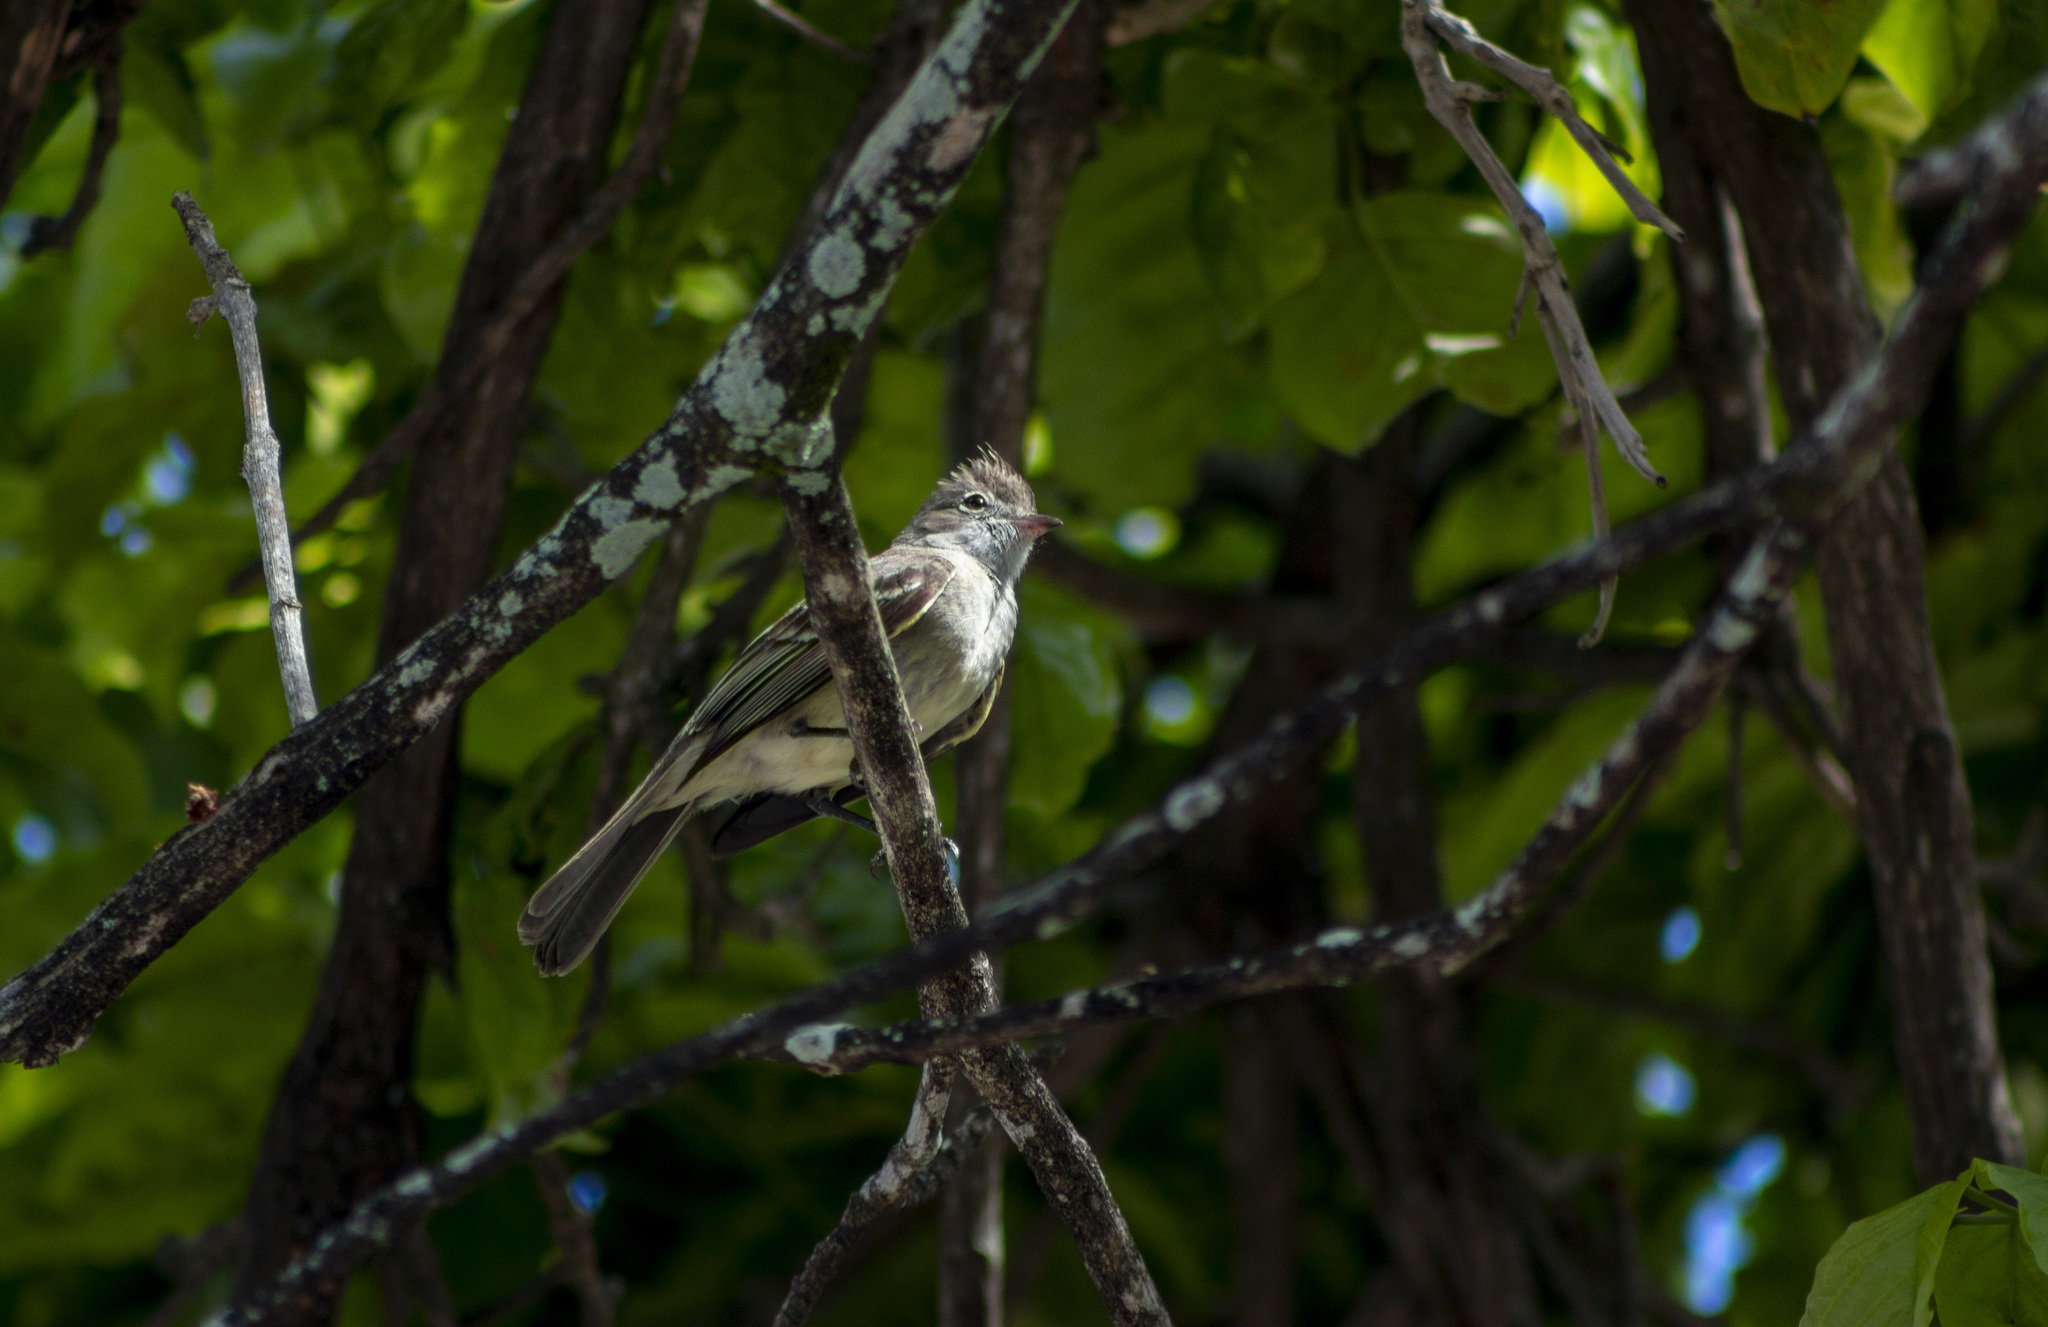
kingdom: Animalia
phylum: Chordata
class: Aves
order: Passeriformes
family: Tyrannidae
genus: Elaenia
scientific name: Elaenia flavogaster
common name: Yellow-bellied elaenia
